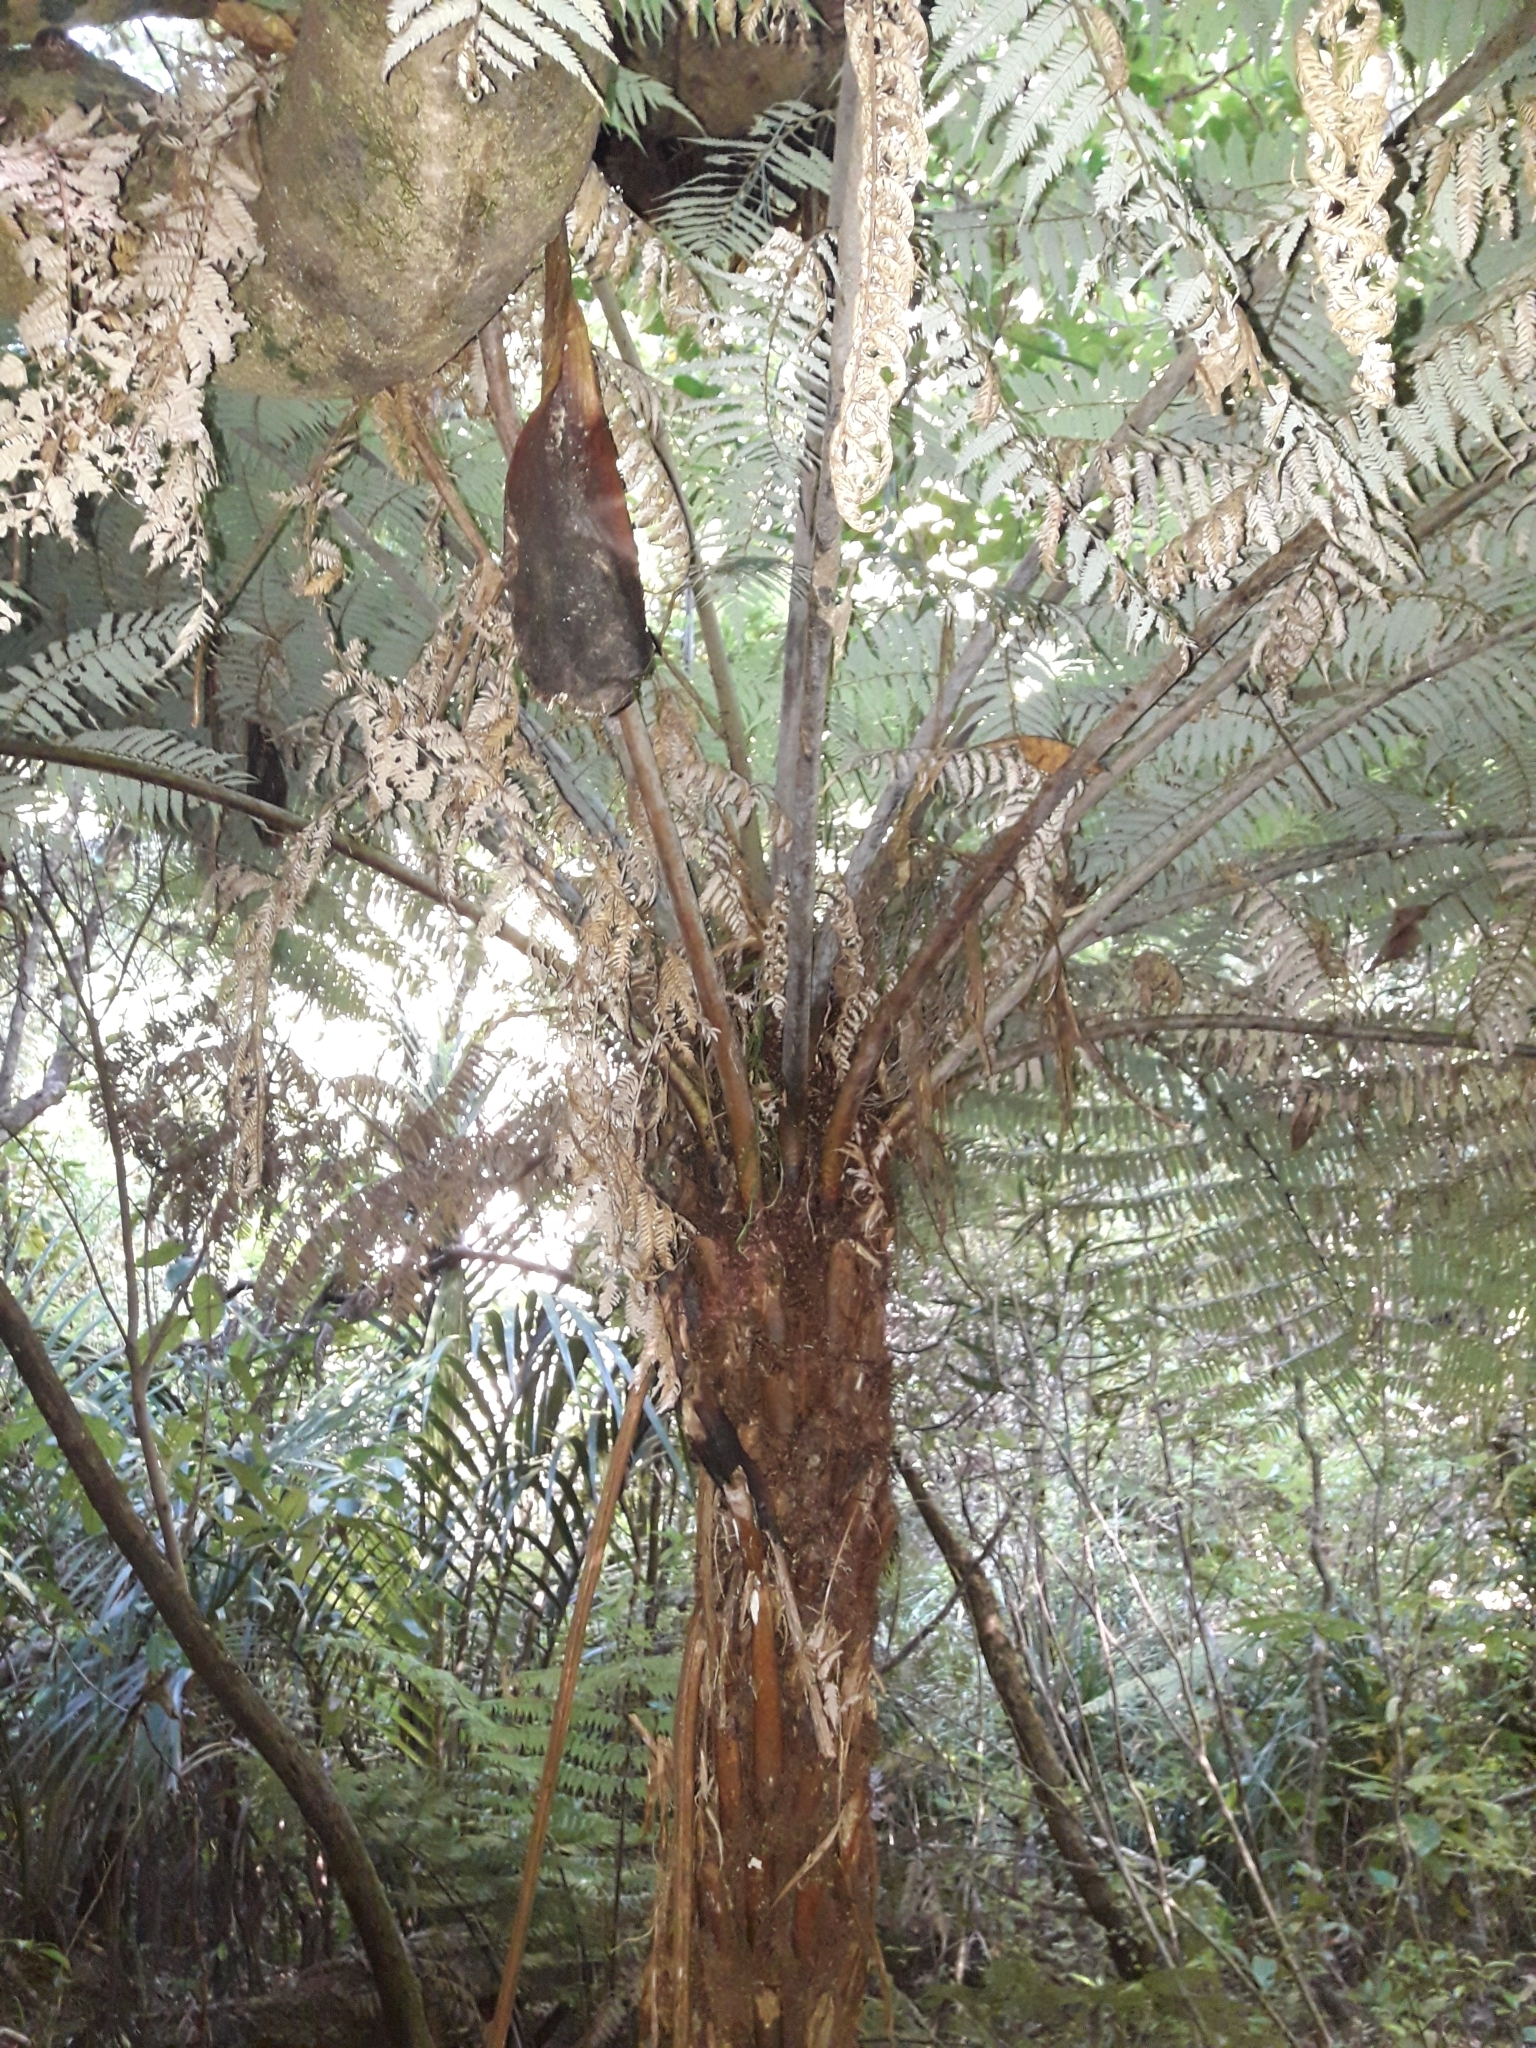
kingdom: Plantae
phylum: Tracheophyta
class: Polypodiopsida
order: Cyatheales
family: Cyatheaceae
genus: Alsophila
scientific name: Alsophila dealbata
